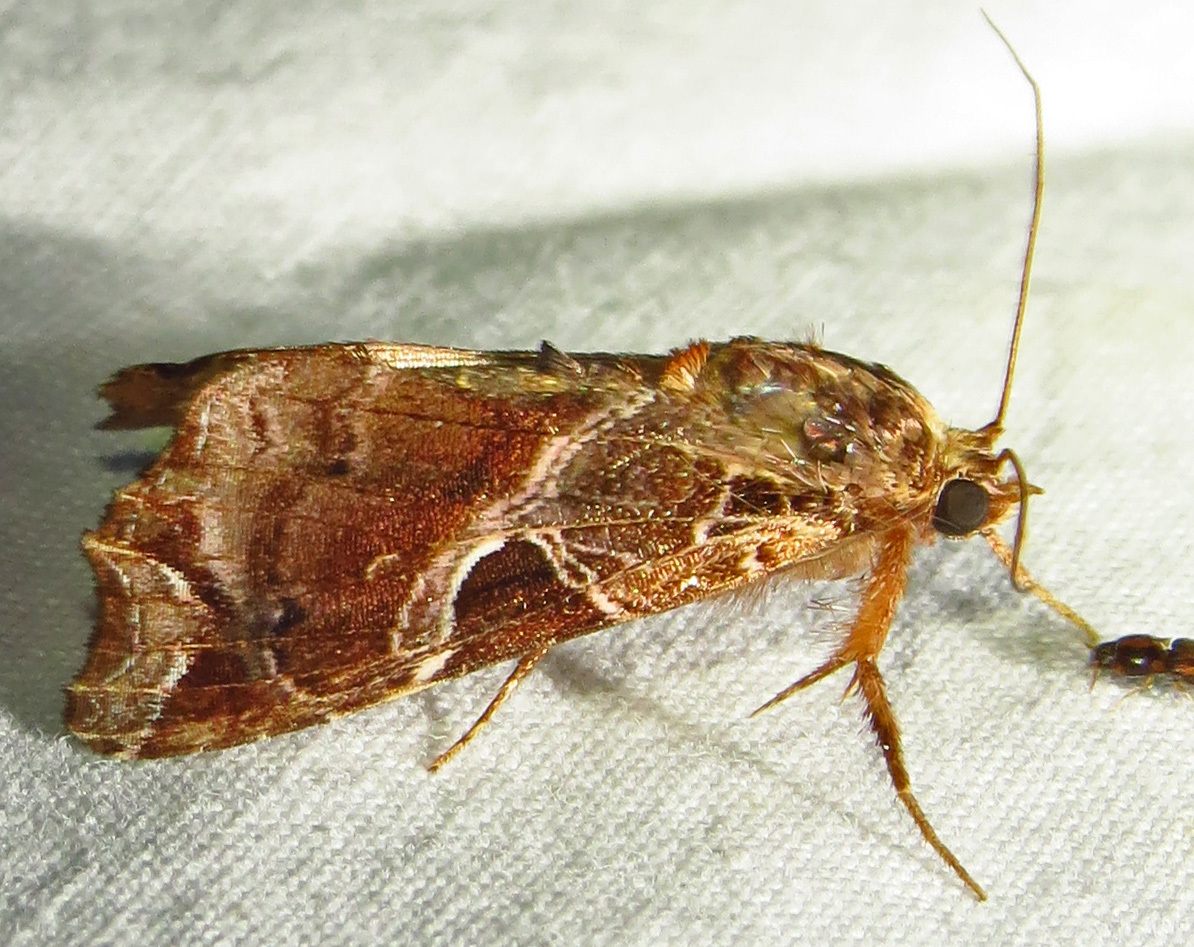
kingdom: Animalia
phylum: Arthropoda
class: Insecta
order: Lepidoptera
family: Noctuidae
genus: Callopistria
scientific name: Callopistria floridensis
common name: Florida fern moth
